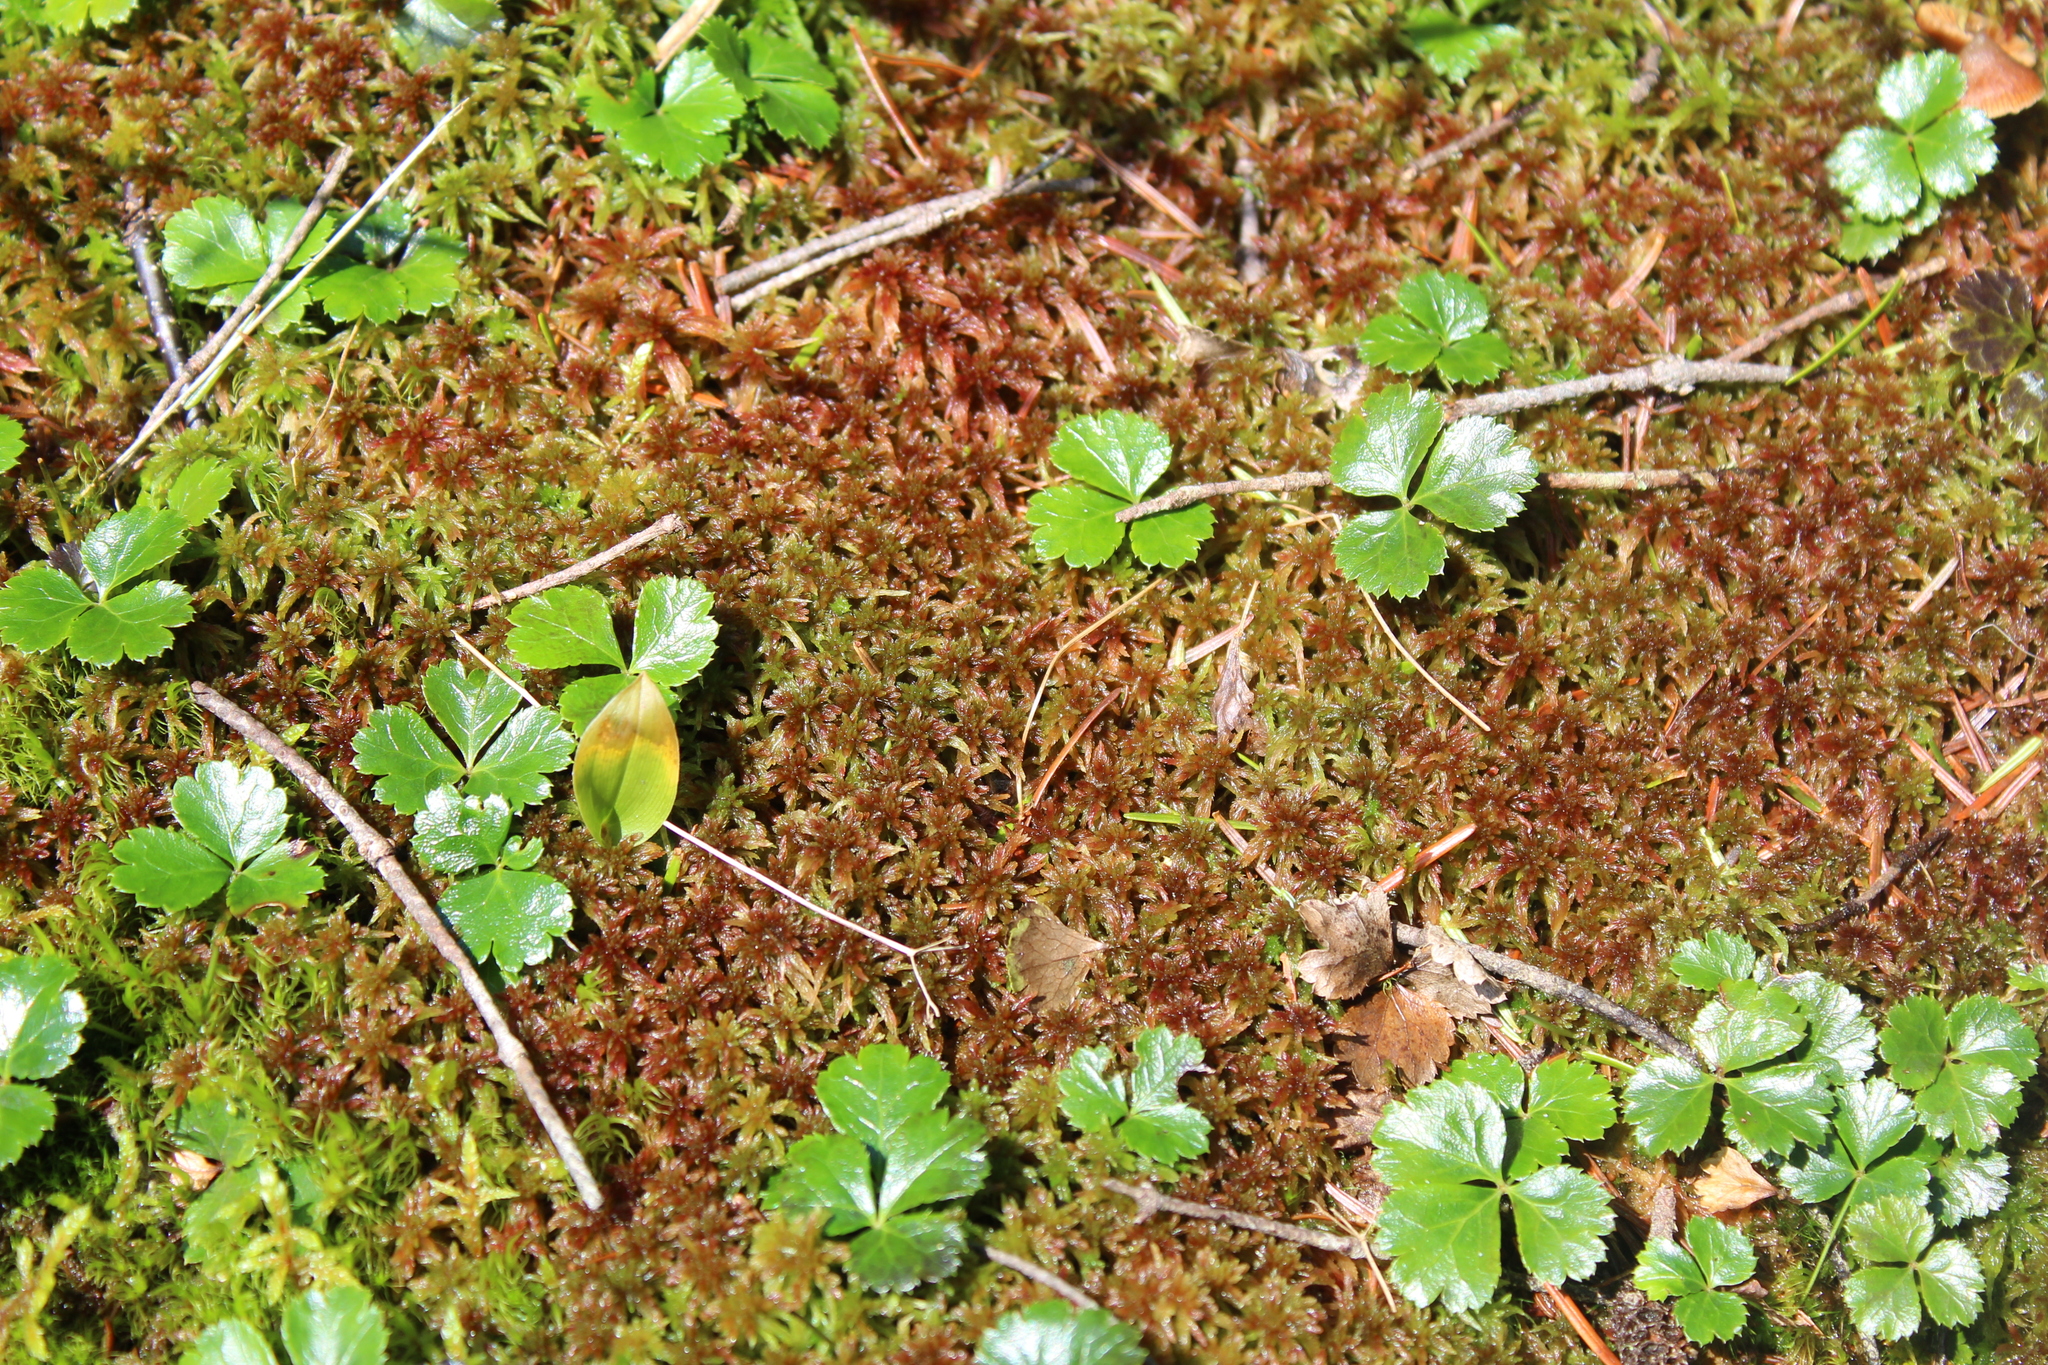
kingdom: Plantae
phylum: Tracheophyta
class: Magnoliopsida
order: Ranunculales
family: Ranunculaceae
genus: Coptis
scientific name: Coptis trifolia
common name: Canker-root
